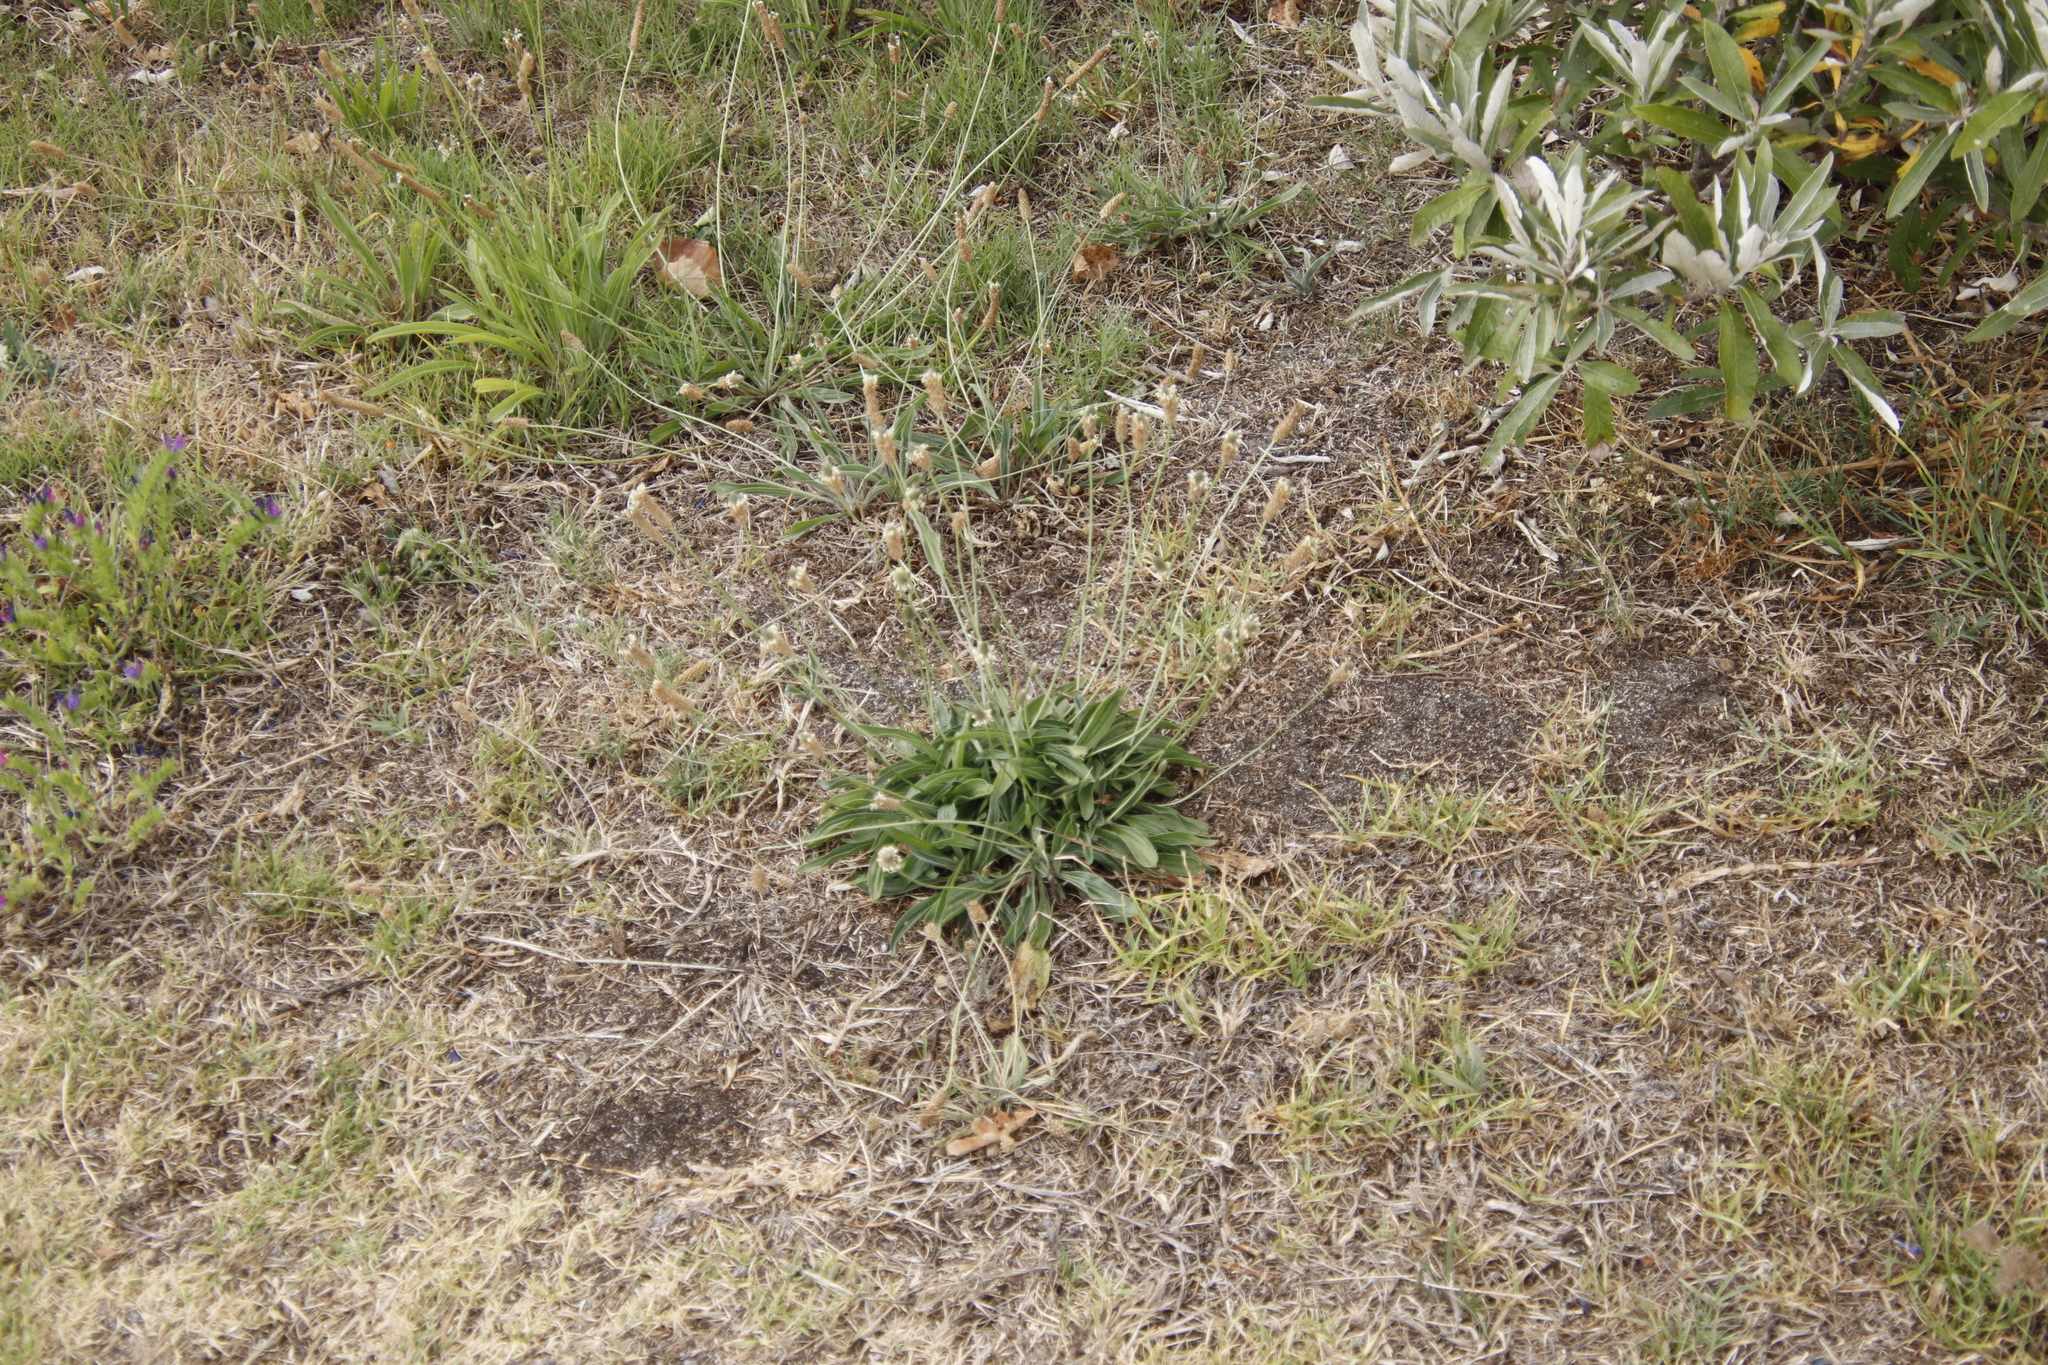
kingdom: Plantae
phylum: Tracheophyta
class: Magnoliopsida
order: Lamiales
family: Plantaginaceae
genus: Plantago
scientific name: Plantago lanceolata
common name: Ribwort plantain
